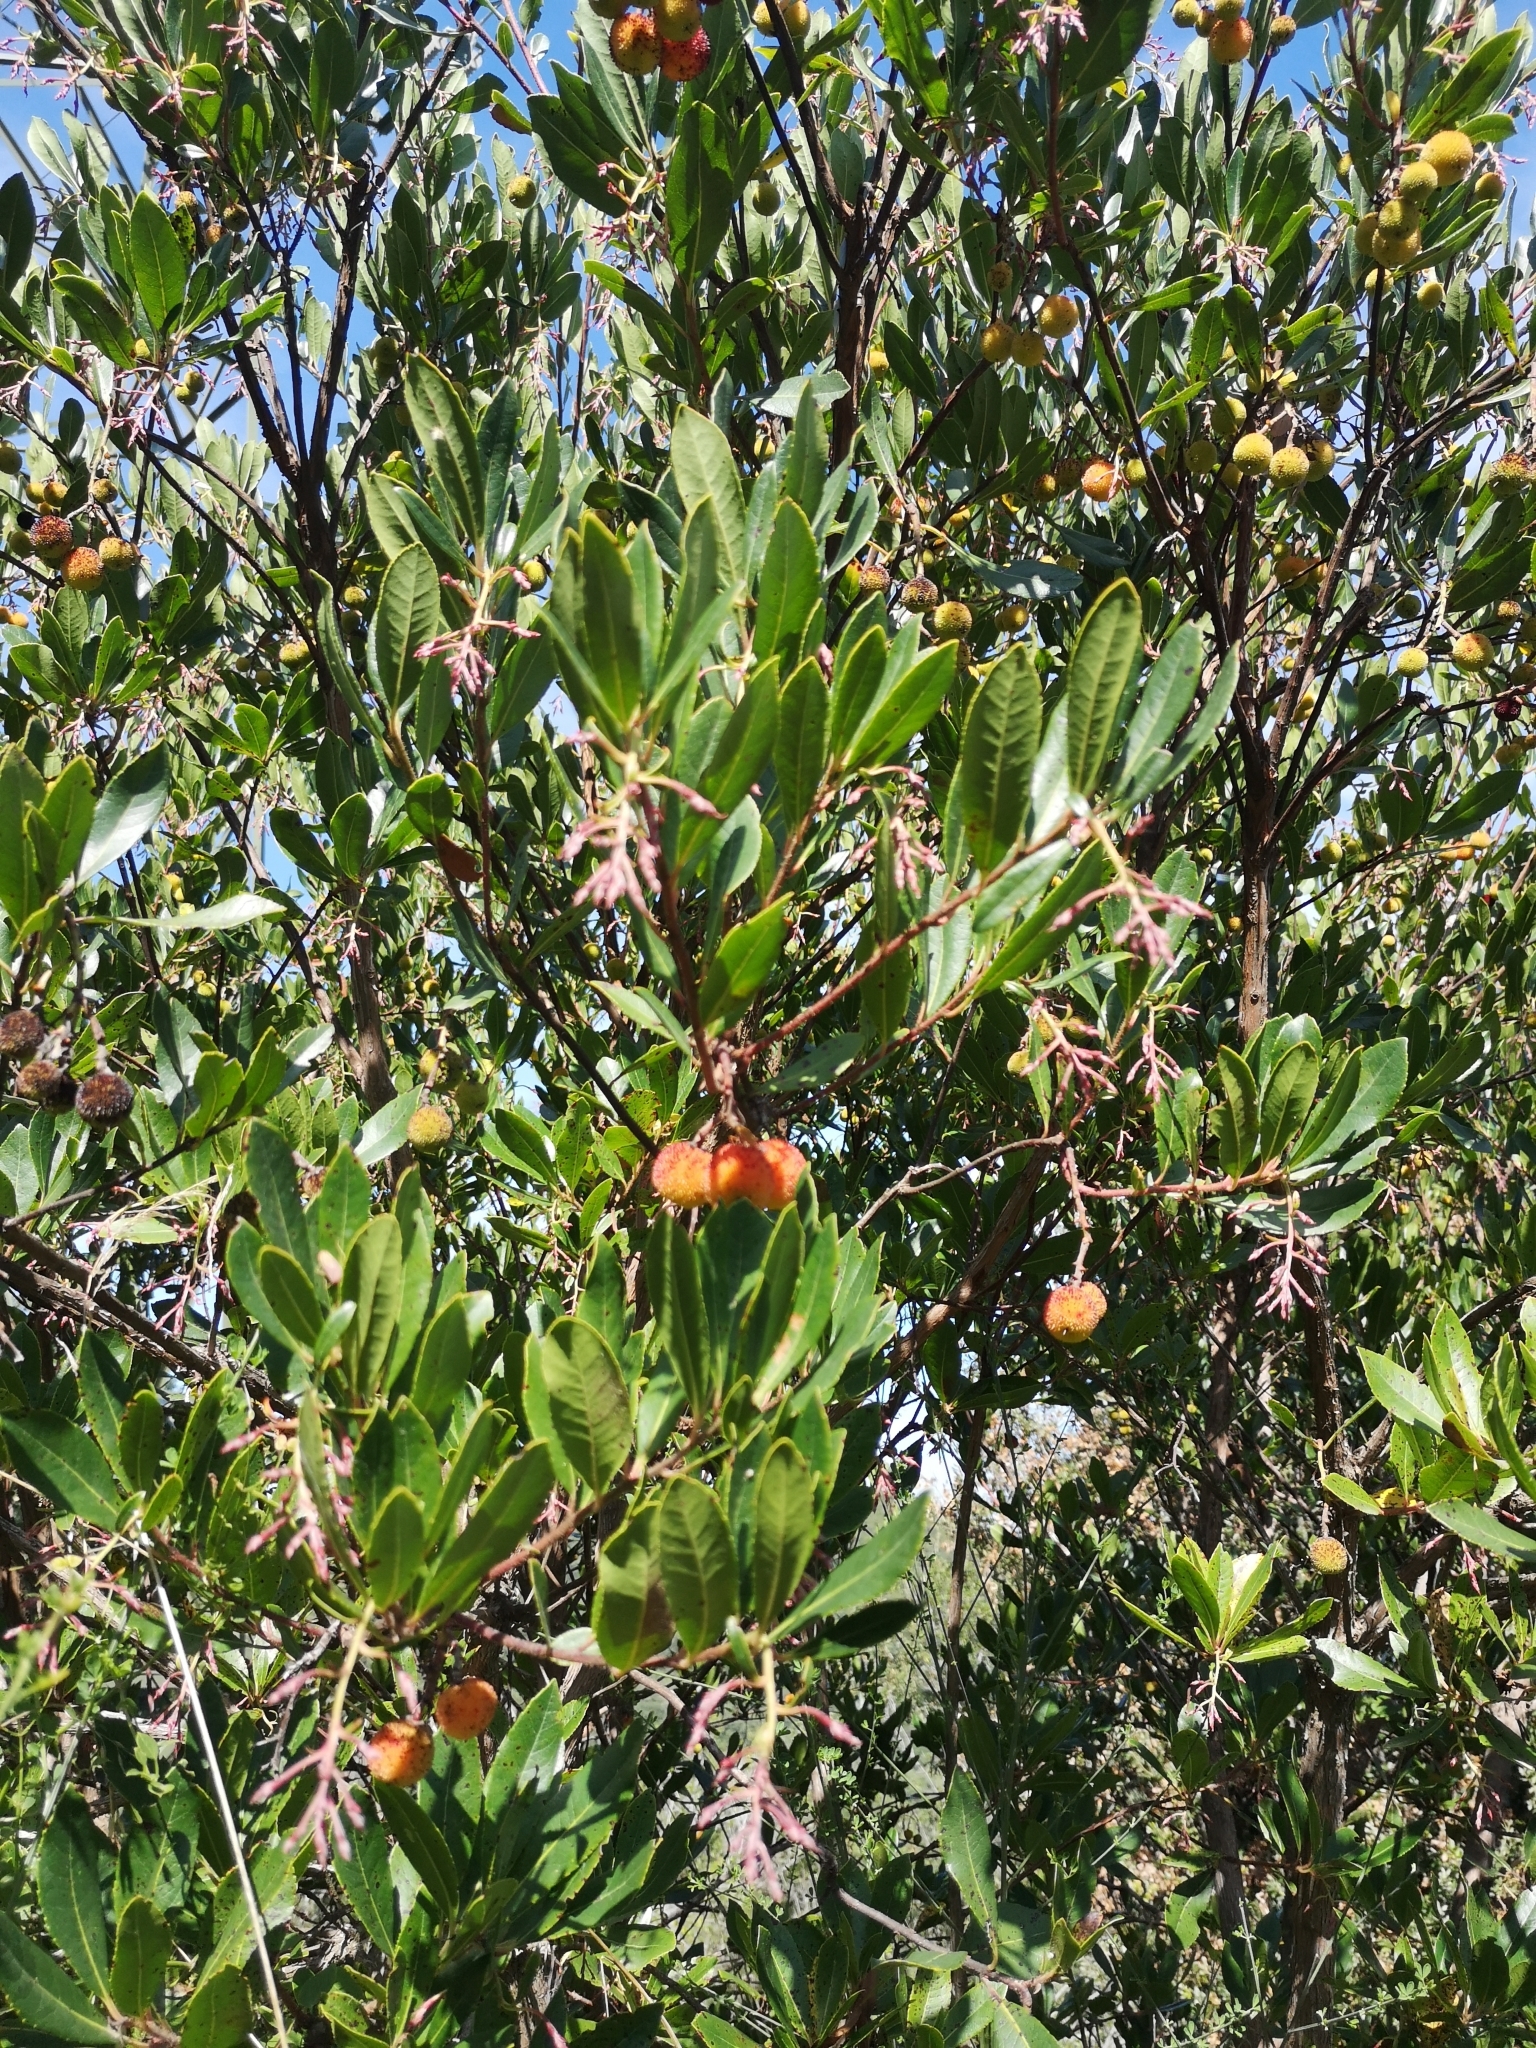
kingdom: Plantae
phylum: Tracheophyta
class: Magnoliopsida
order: Ericales
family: Ericaceae
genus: Arbutus
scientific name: Arbutus unedo
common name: Strawberry-tree
